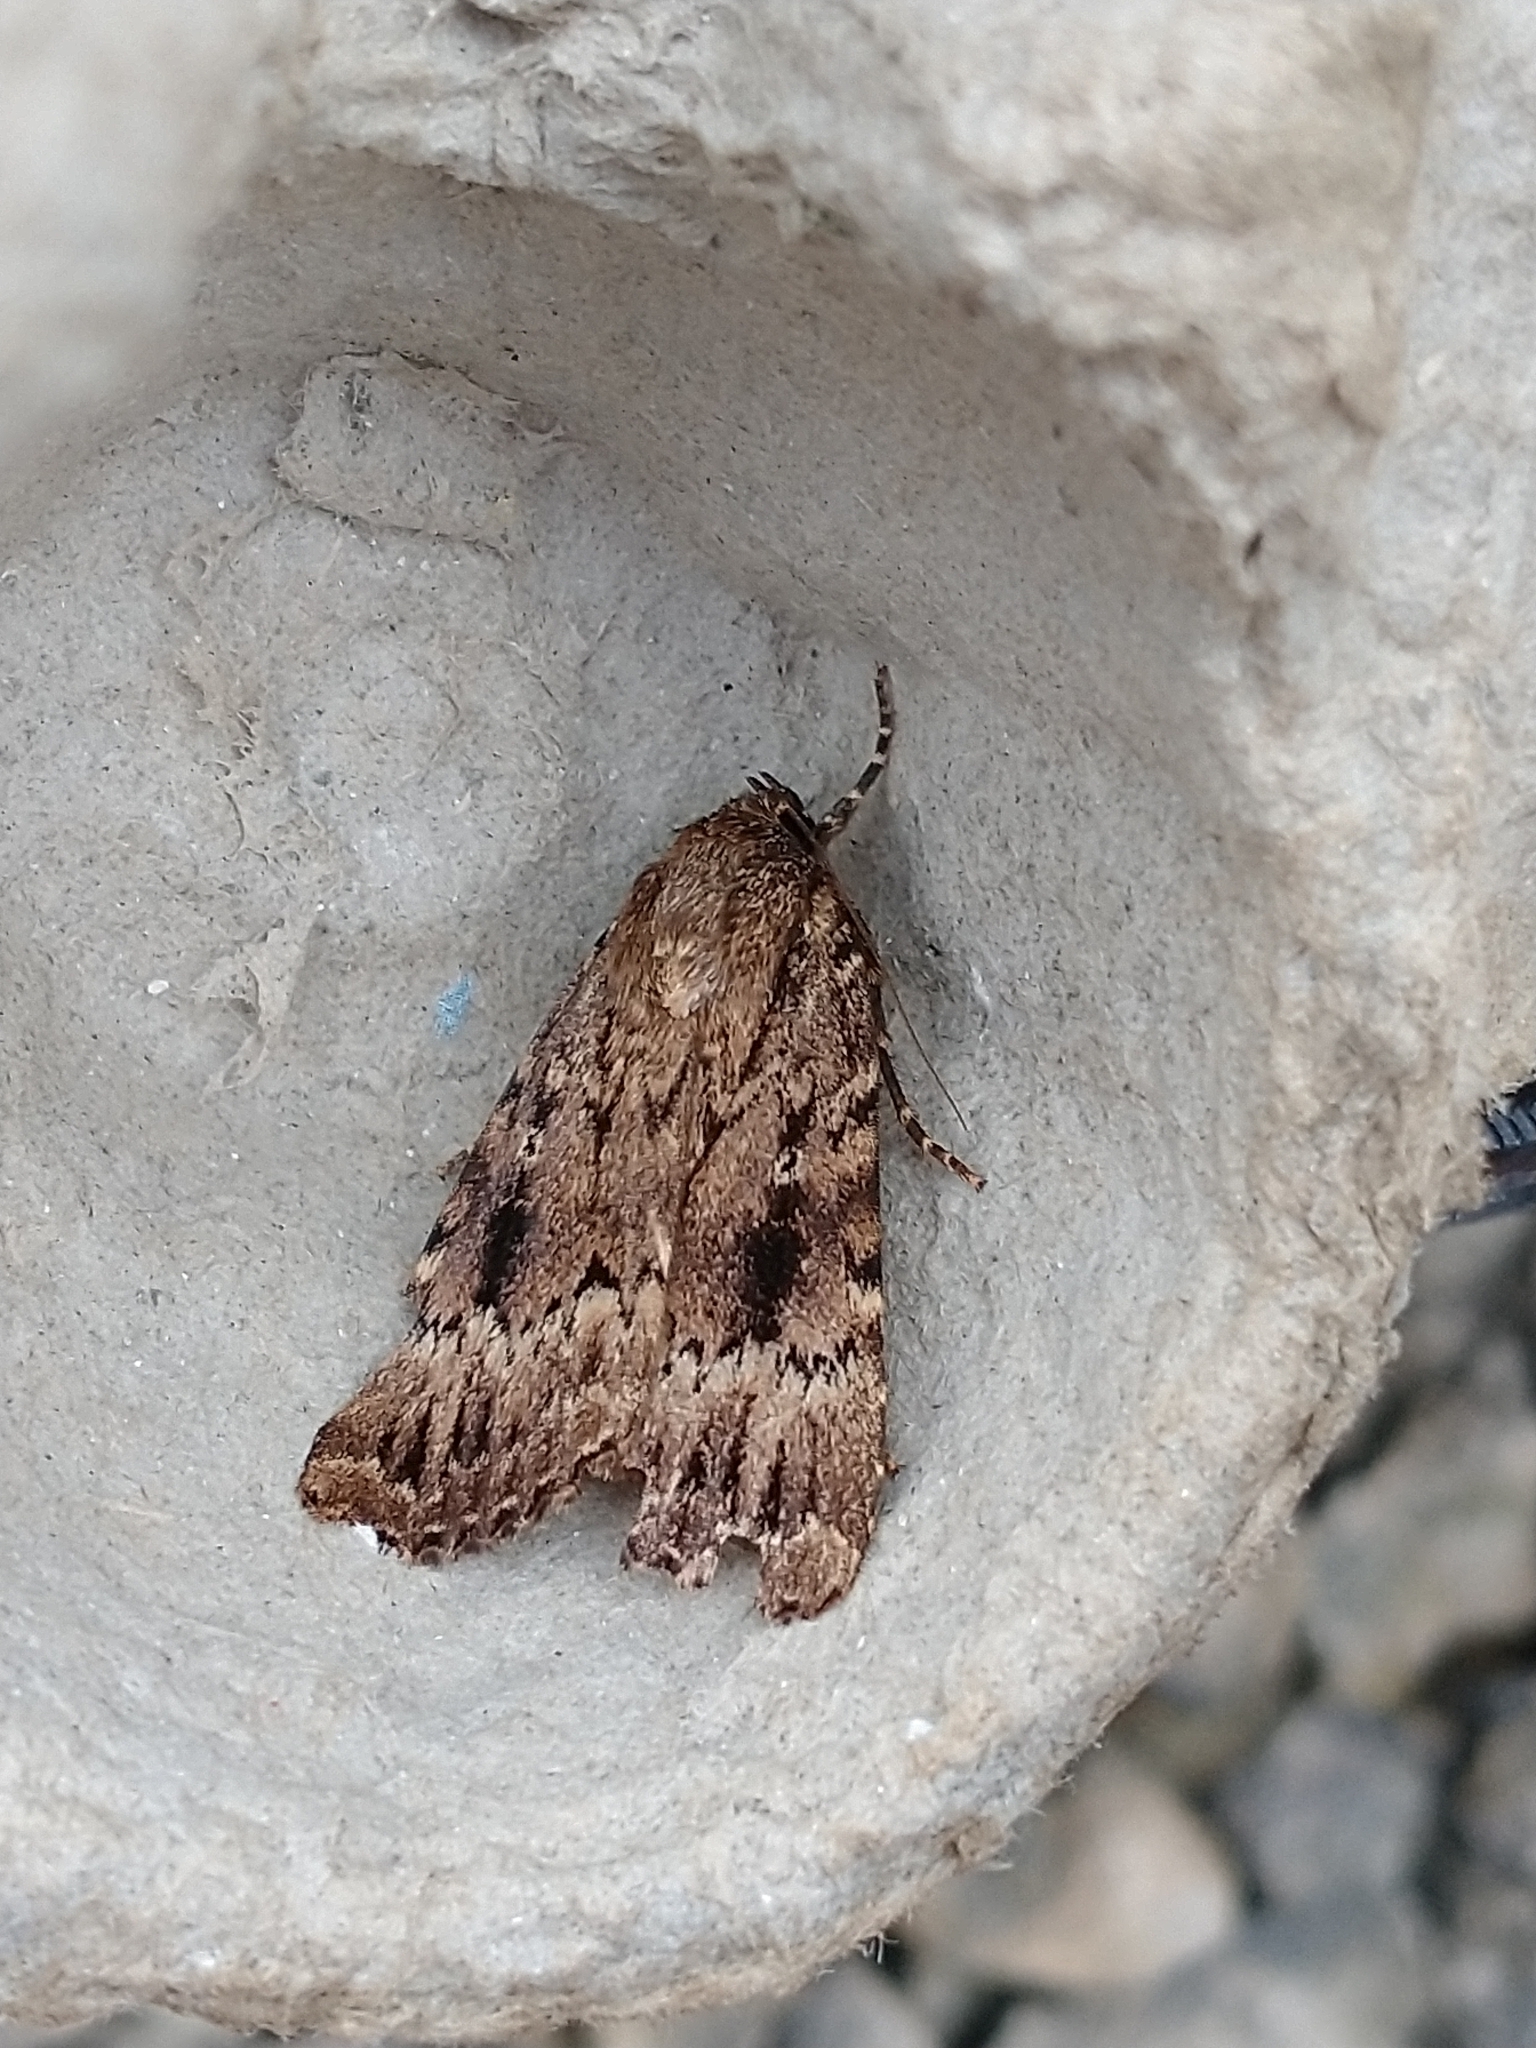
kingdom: Animalia
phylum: Arthropoda
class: Insecta
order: Lepidoptera
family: Noctuidae
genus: Amphipyra
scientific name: Amphipyra pyramidea
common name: Copper underwing
